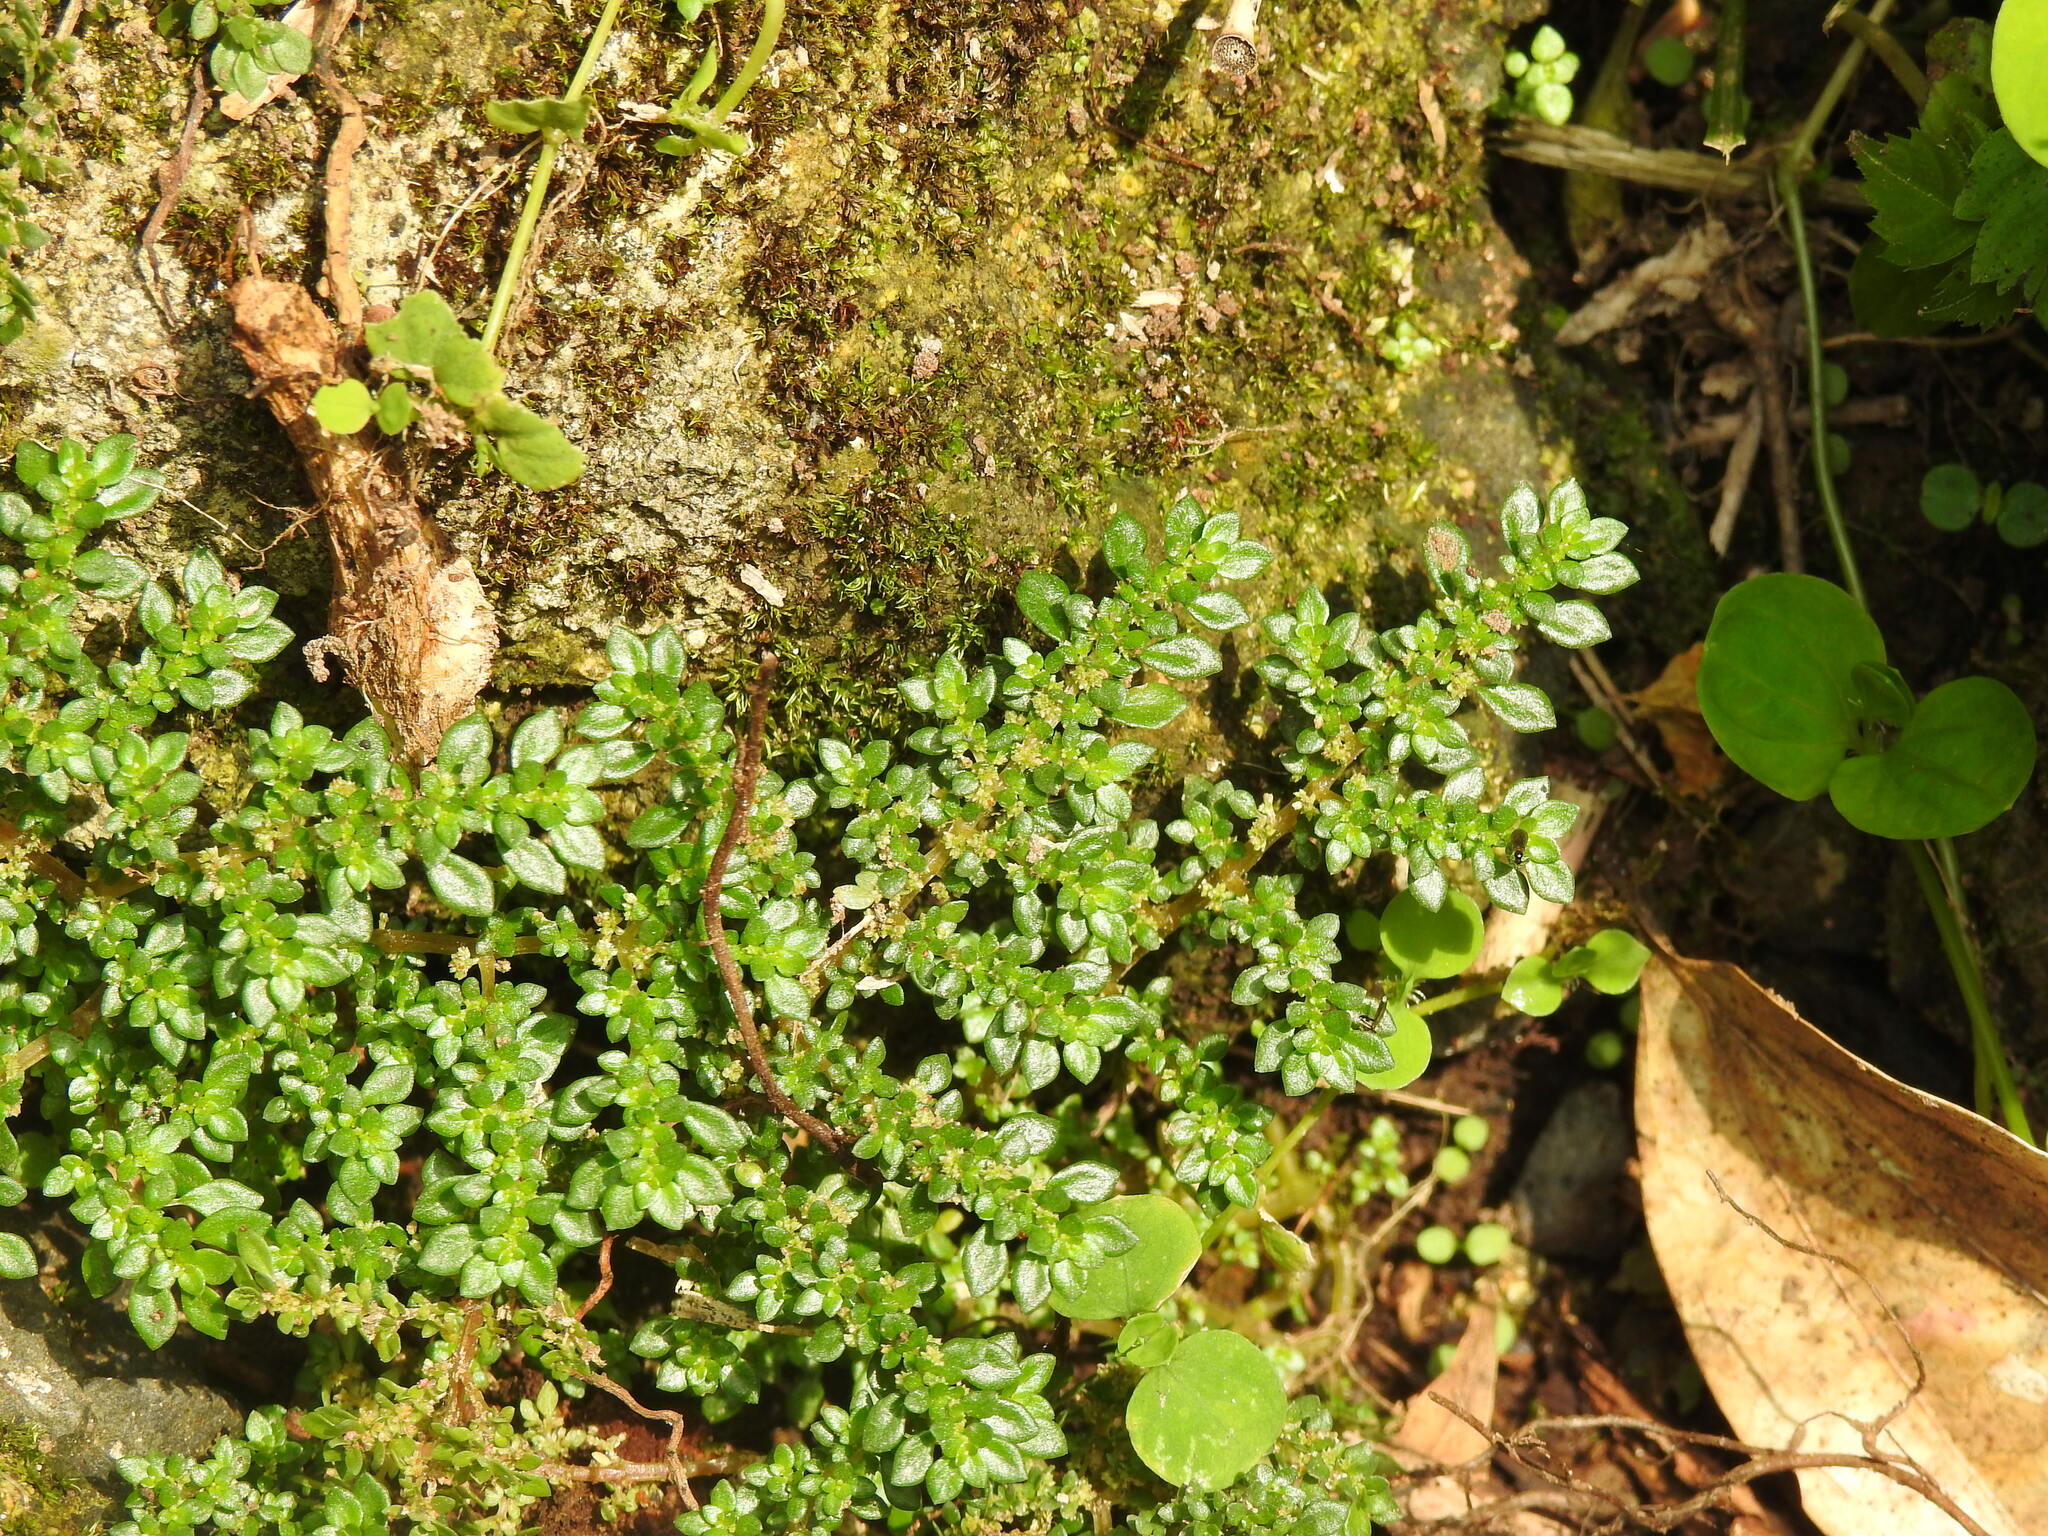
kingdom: Plantae
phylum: Tracheophyta
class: Magnoliopsida
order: Rosales
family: Urticaceae
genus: Pilea
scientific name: Pilea microphylla
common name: Artillery-plant
